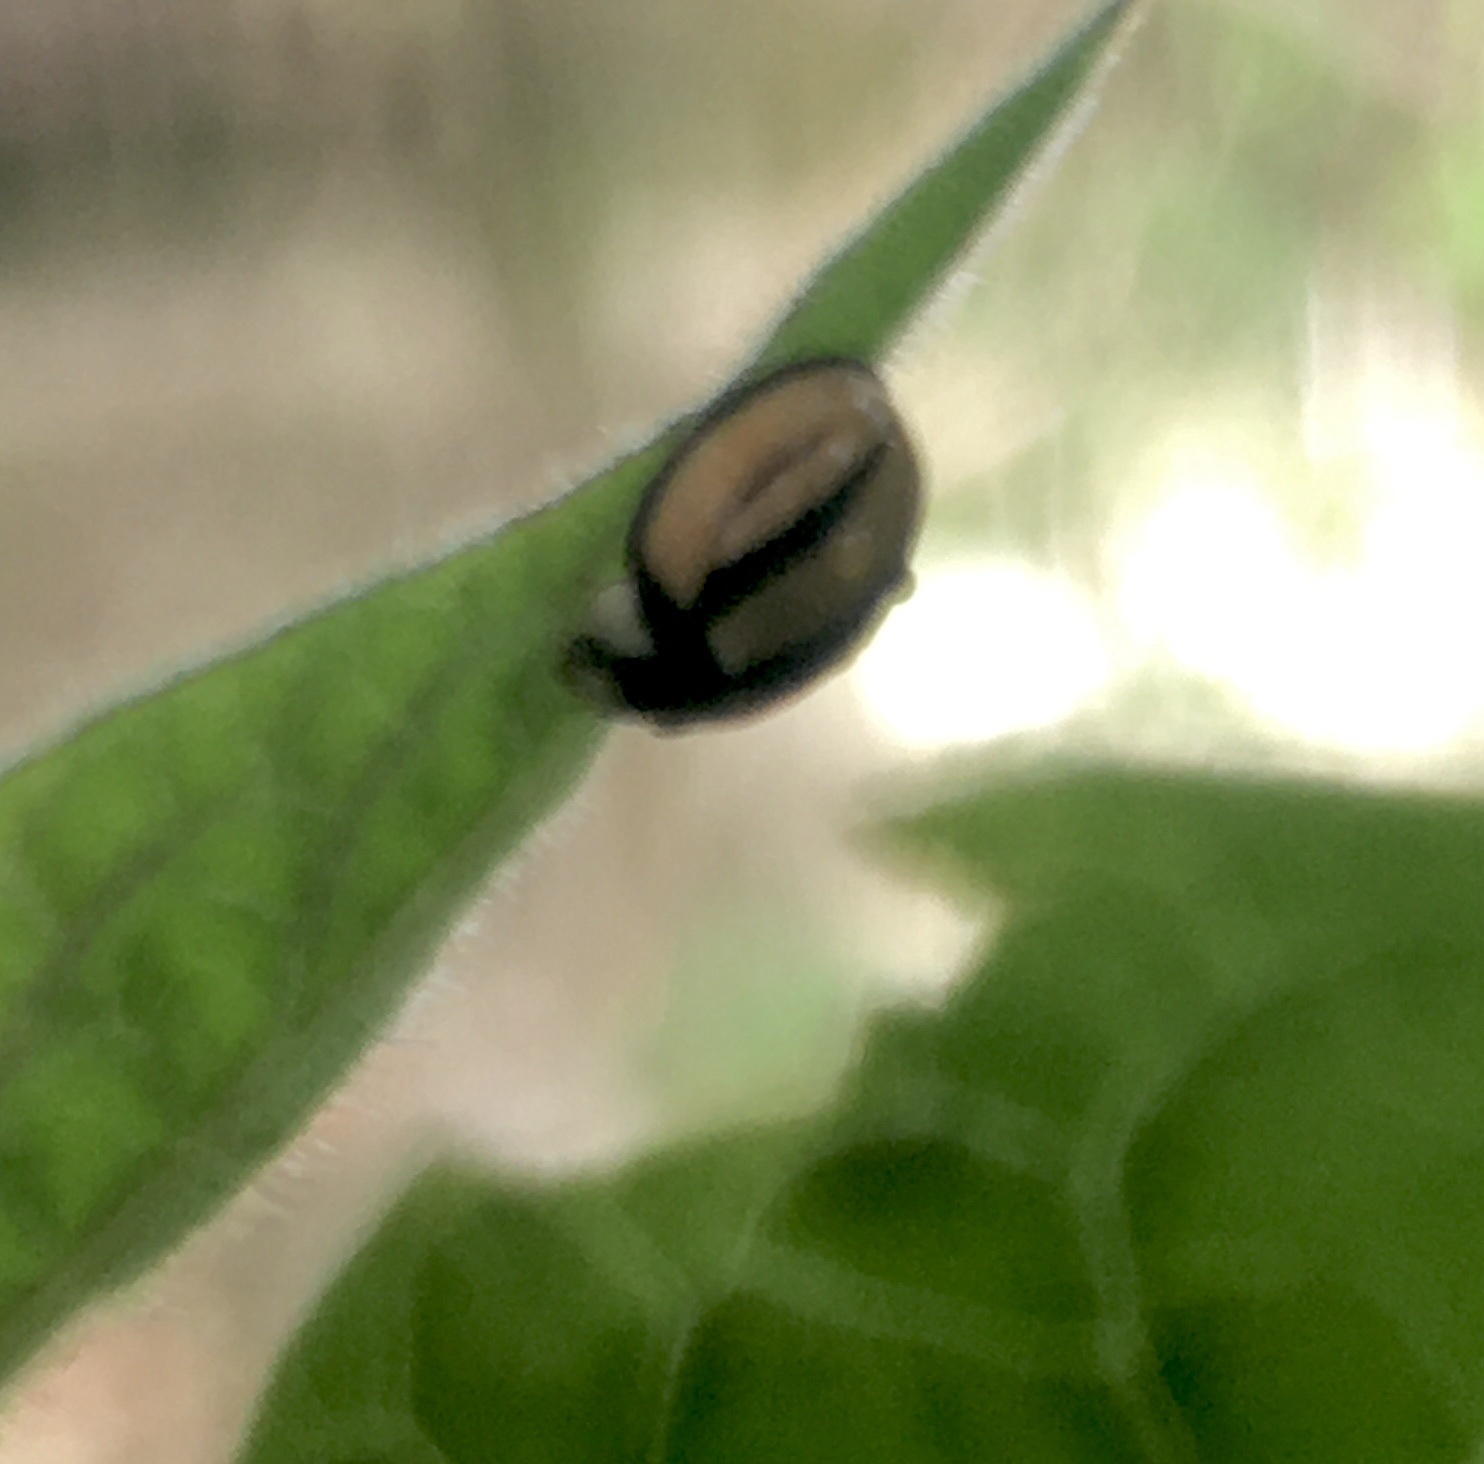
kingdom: Animalia
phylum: Arthropoda
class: Insecta
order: Coleoptera
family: Coccinellidae
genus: Cheilomenes
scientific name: Cheilomenes propinqua
